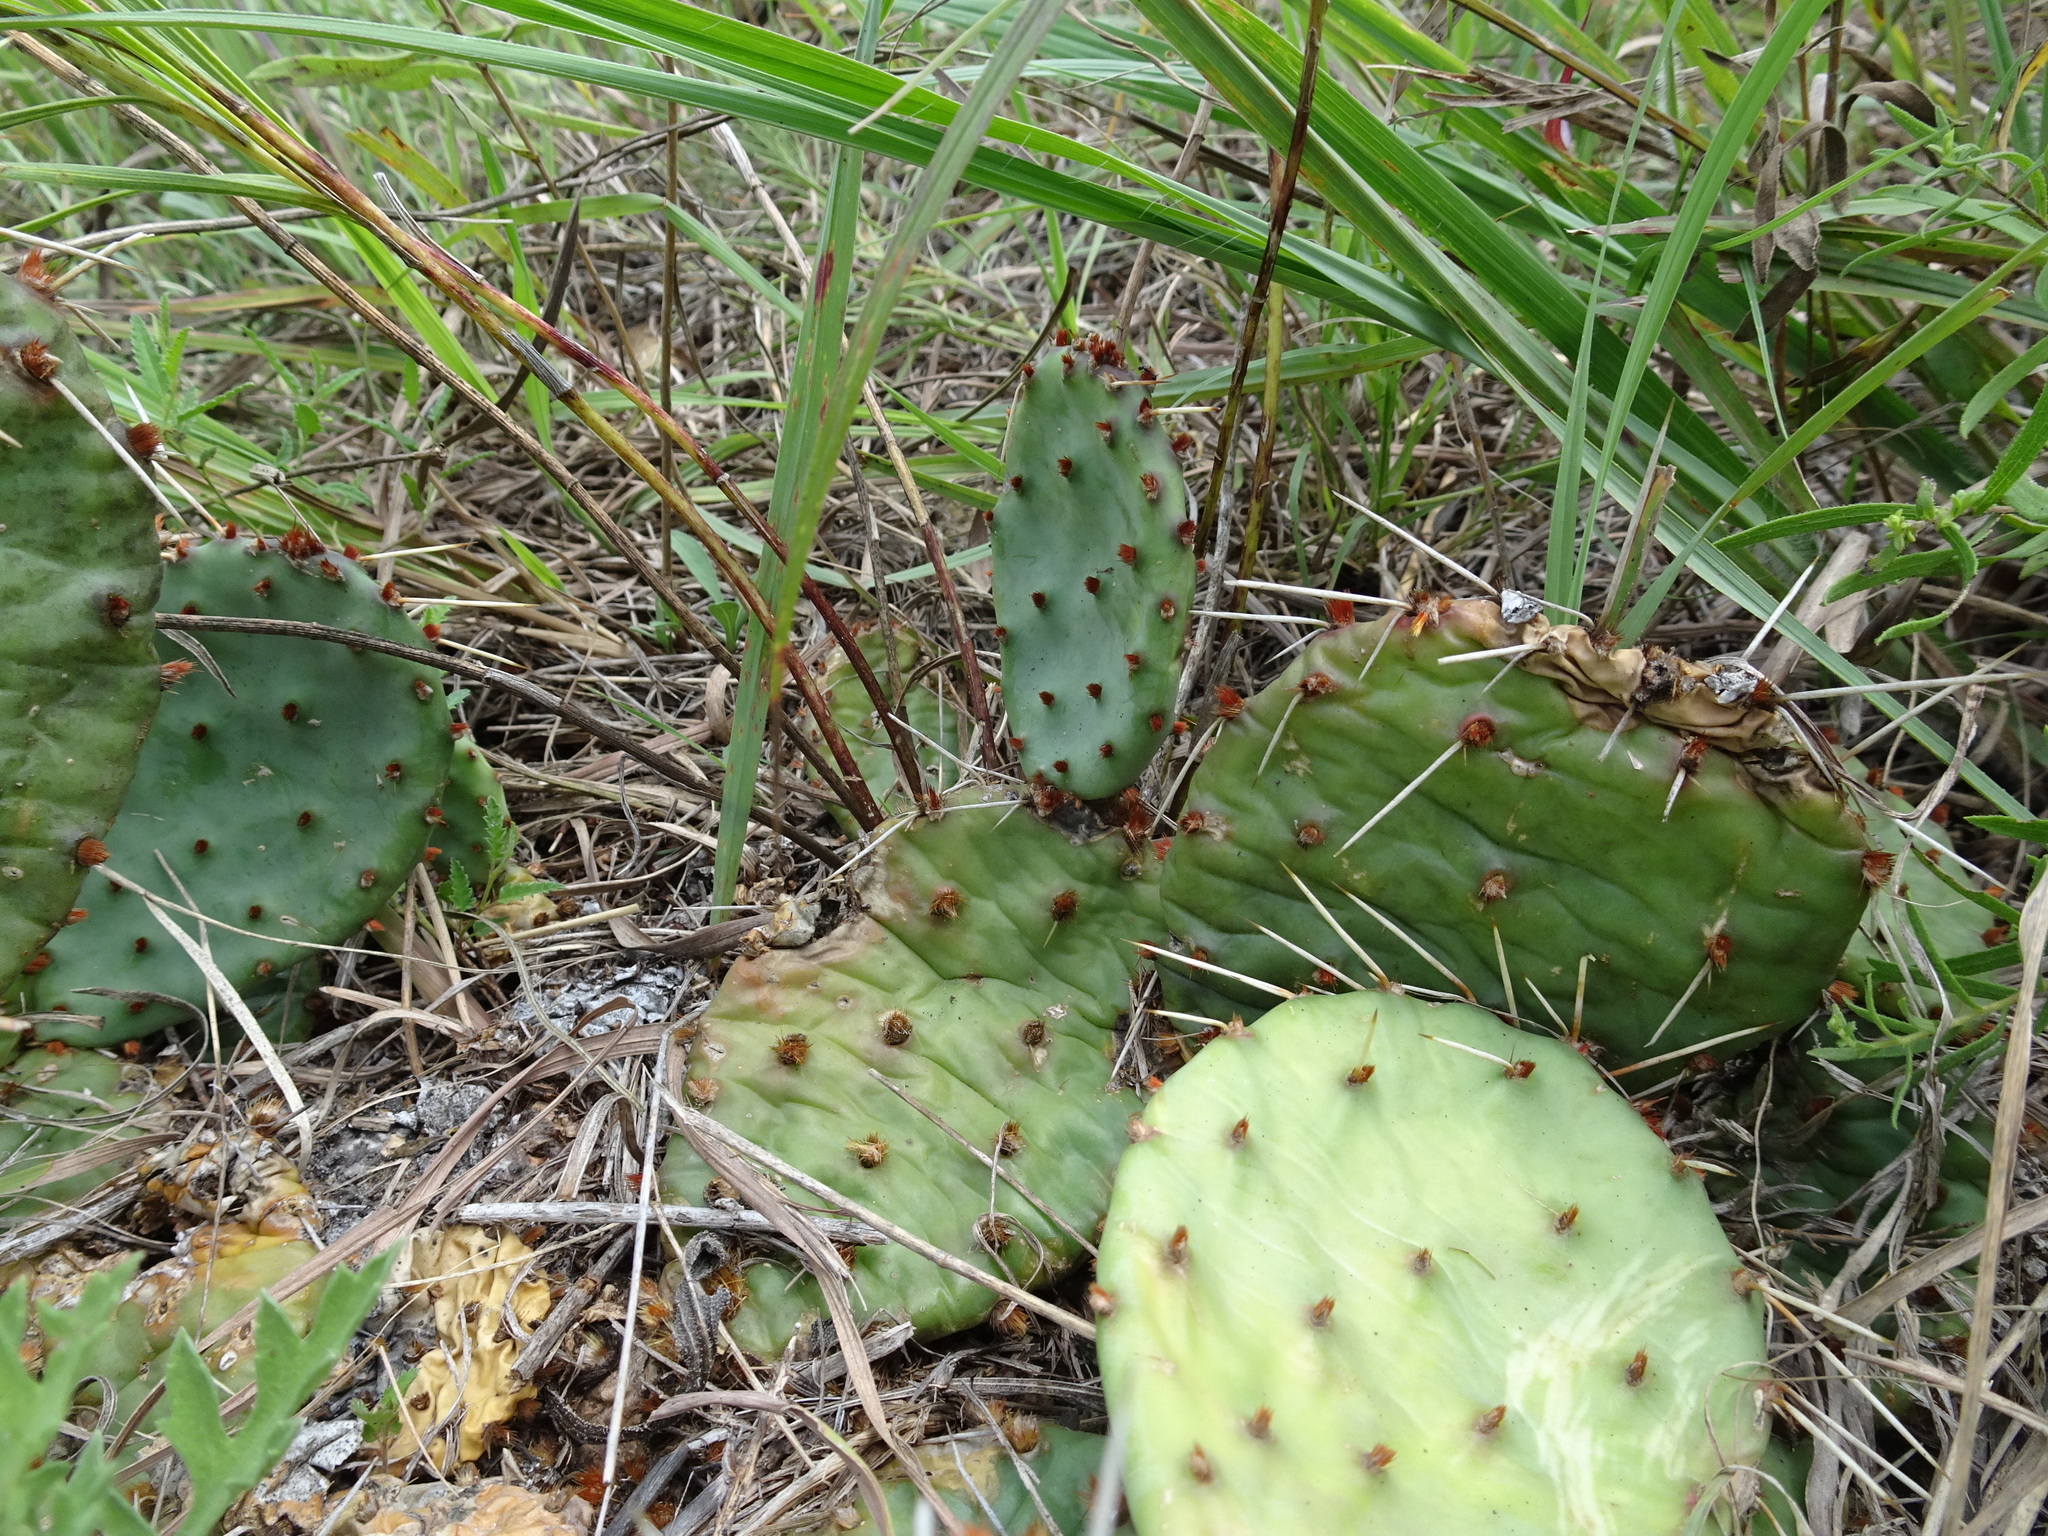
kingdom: Plantae
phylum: Tracheophyta
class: Magnoliopsida
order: Caryophyllales
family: Cactaceae
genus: Opuntia
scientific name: Opuntia macrorhiza
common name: Grassland pricklypear
